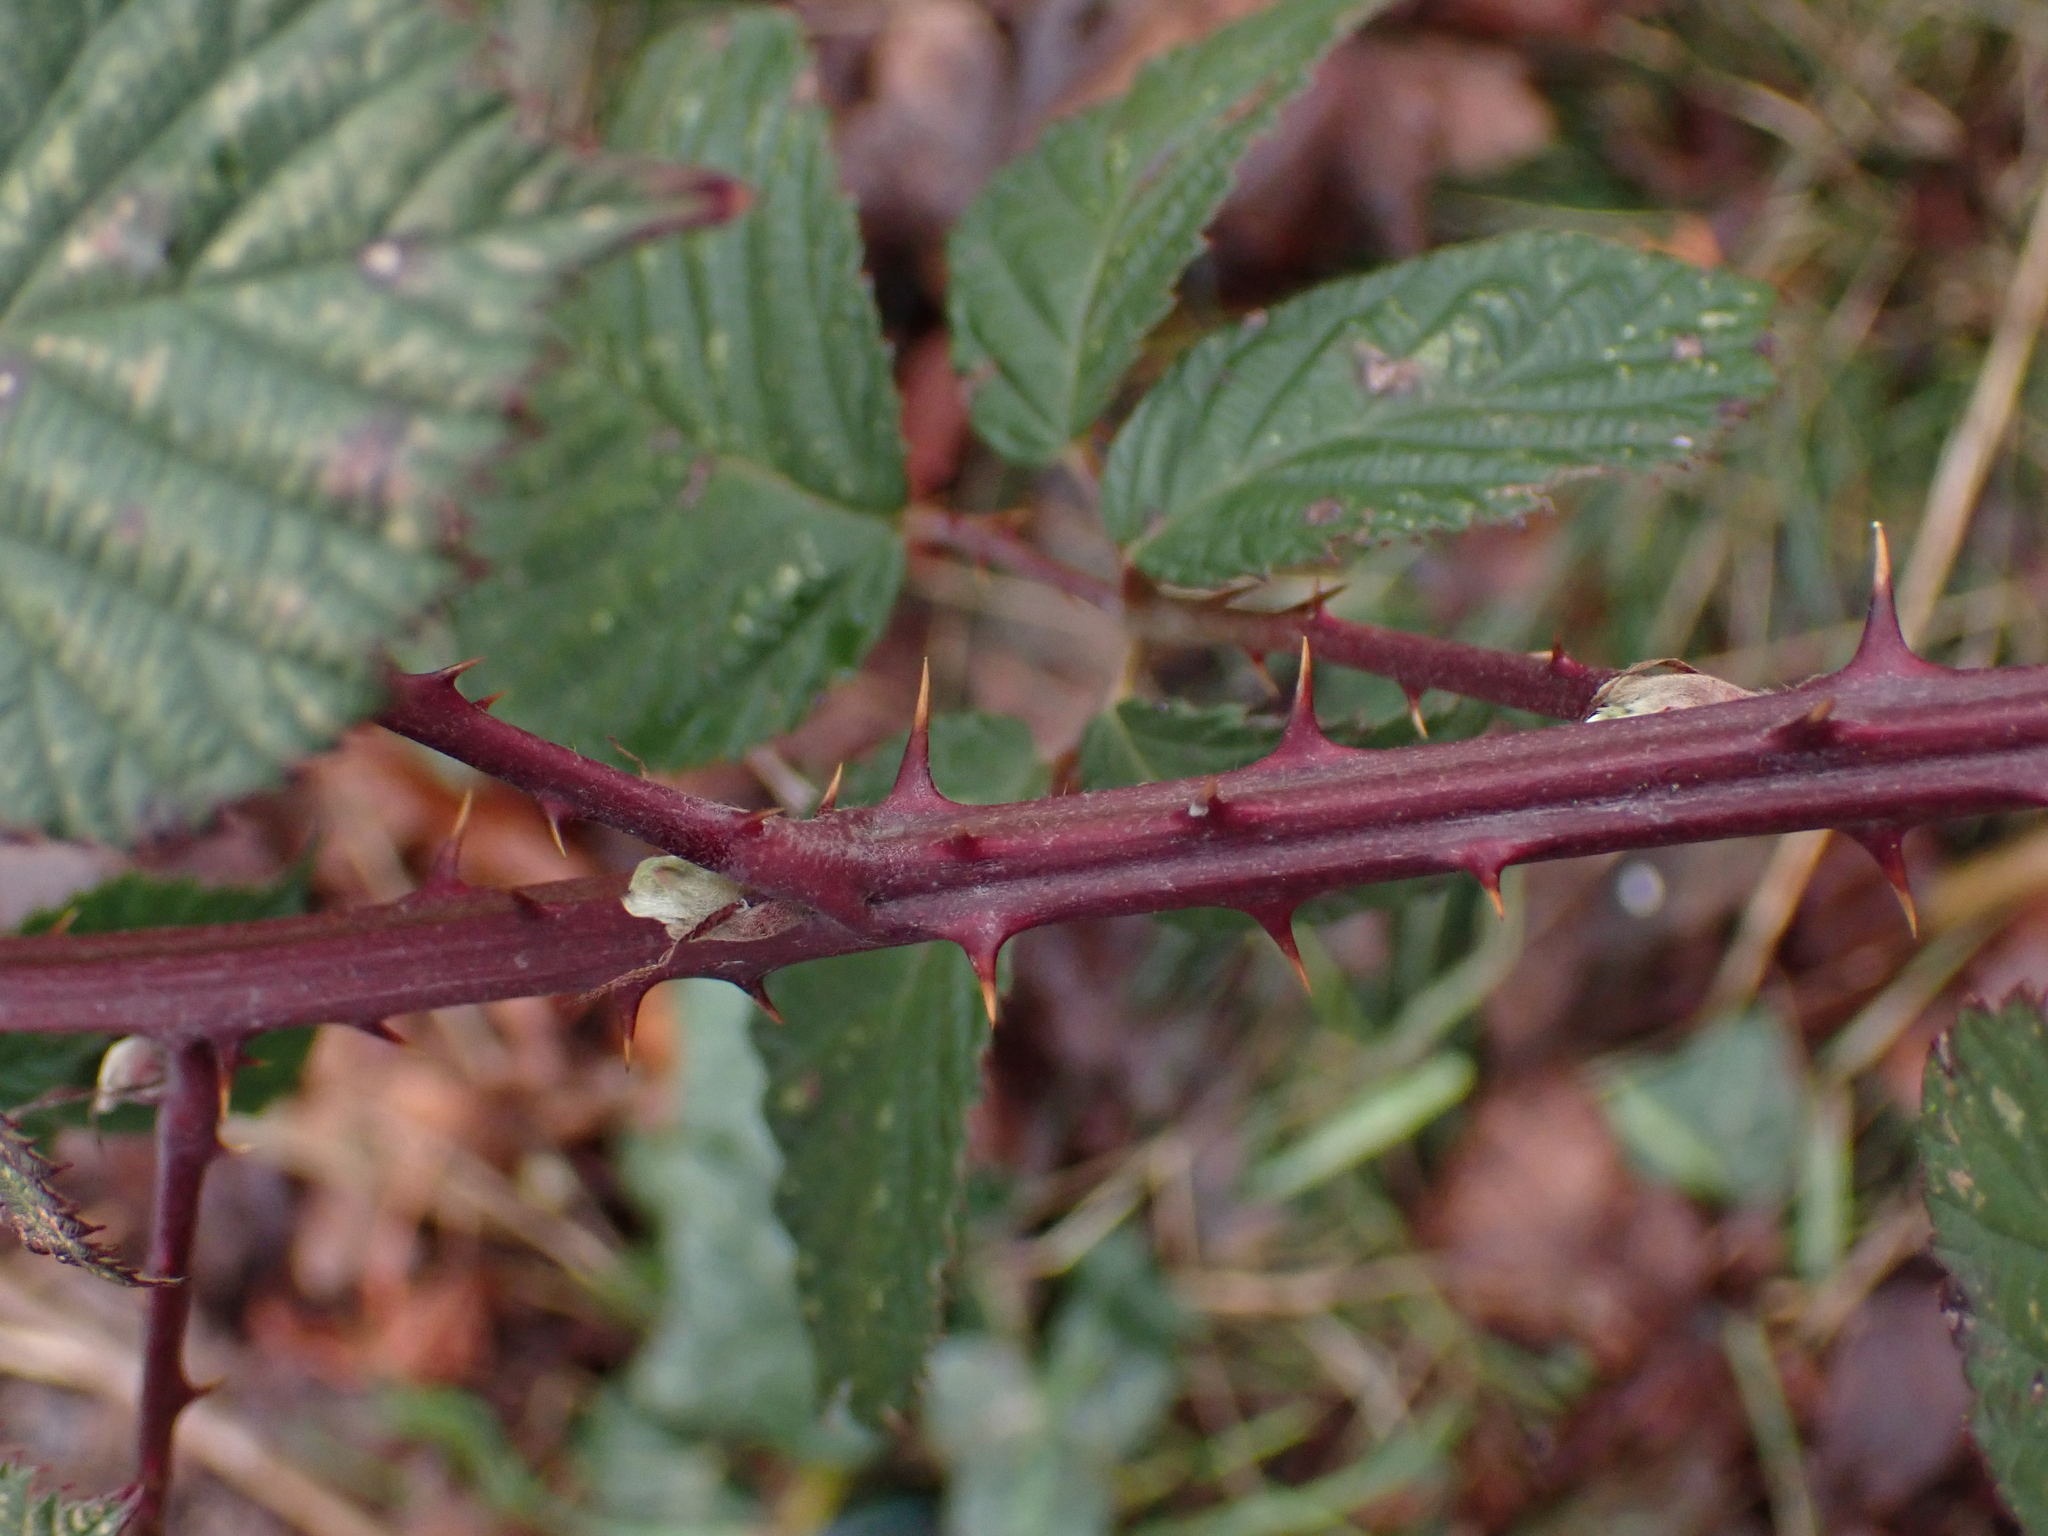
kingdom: Plantae
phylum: Tracheophyta
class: Magnoliopsida
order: Rosales
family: Rosaceae
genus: Rubus
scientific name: Rubus bifrons
